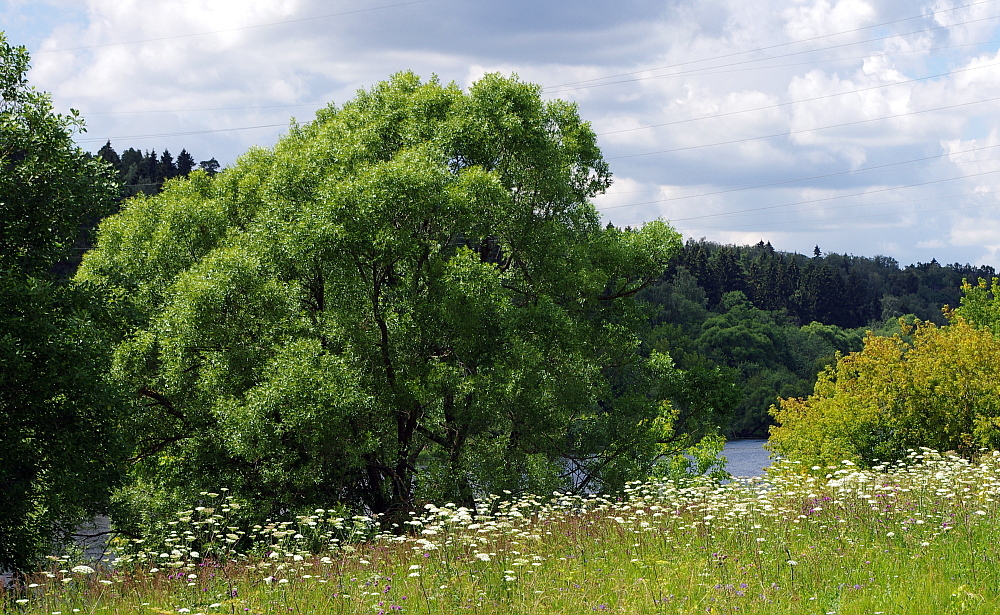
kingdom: Plantae
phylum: Tracheophyta
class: Magnoliopsida
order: Malpighiales
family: Salicaceae
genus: Salix
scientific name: Salix alba
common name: White willow
